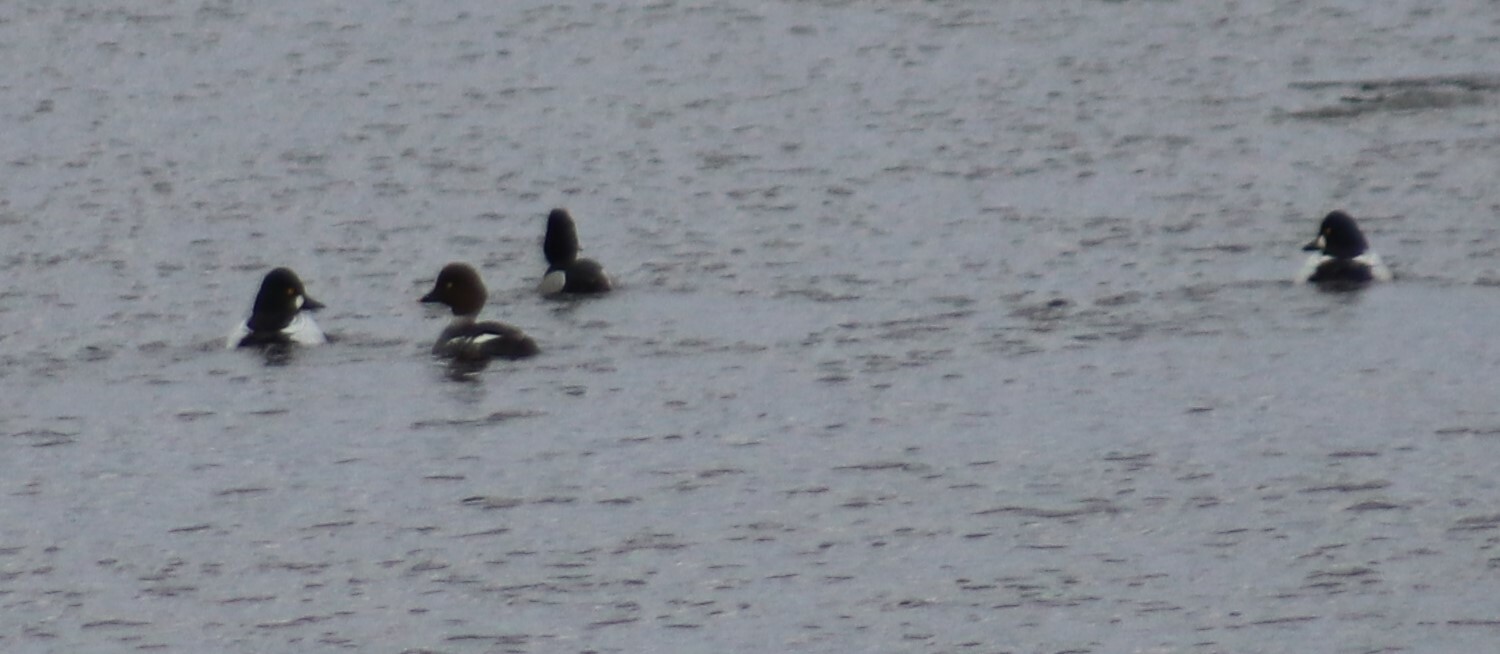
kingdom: Animalia
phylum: Chordata
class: Aves
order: Anseriformes
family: Anatidae
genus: Bucephala
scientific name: Bucephala clangula
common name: Common goldeneye
